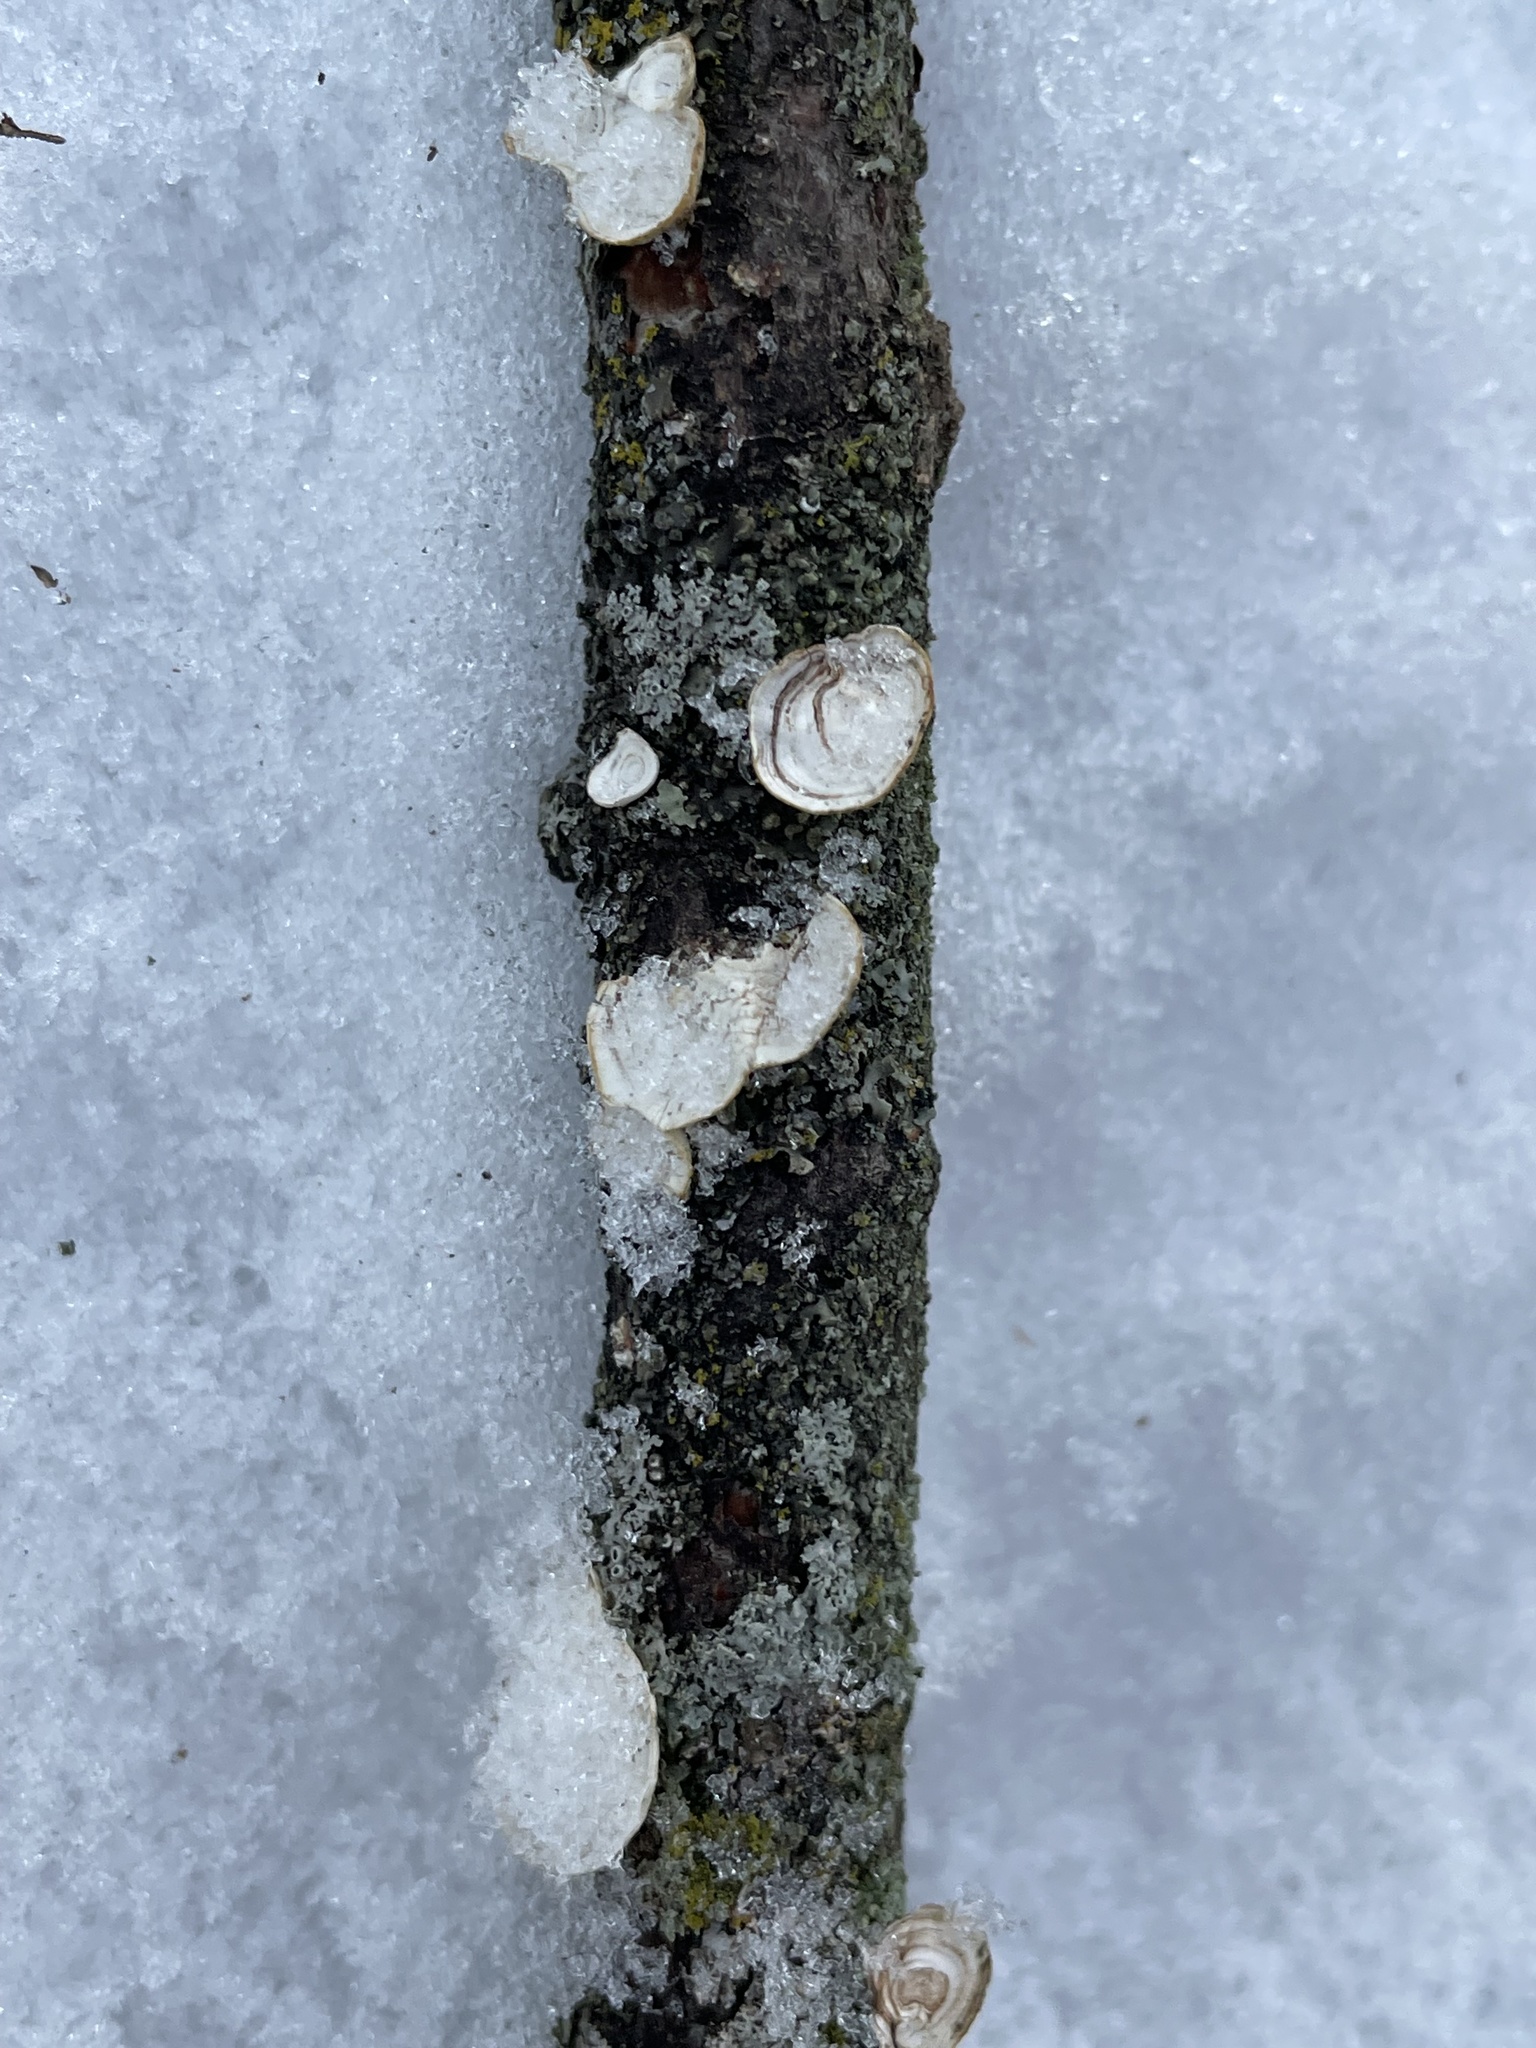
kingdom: Fungi
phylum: Basidiomycota
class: Agaricomycetes
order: Polyporales
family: Polyporaceae
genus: Poronidulus
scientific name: Poronidulus conchifer
